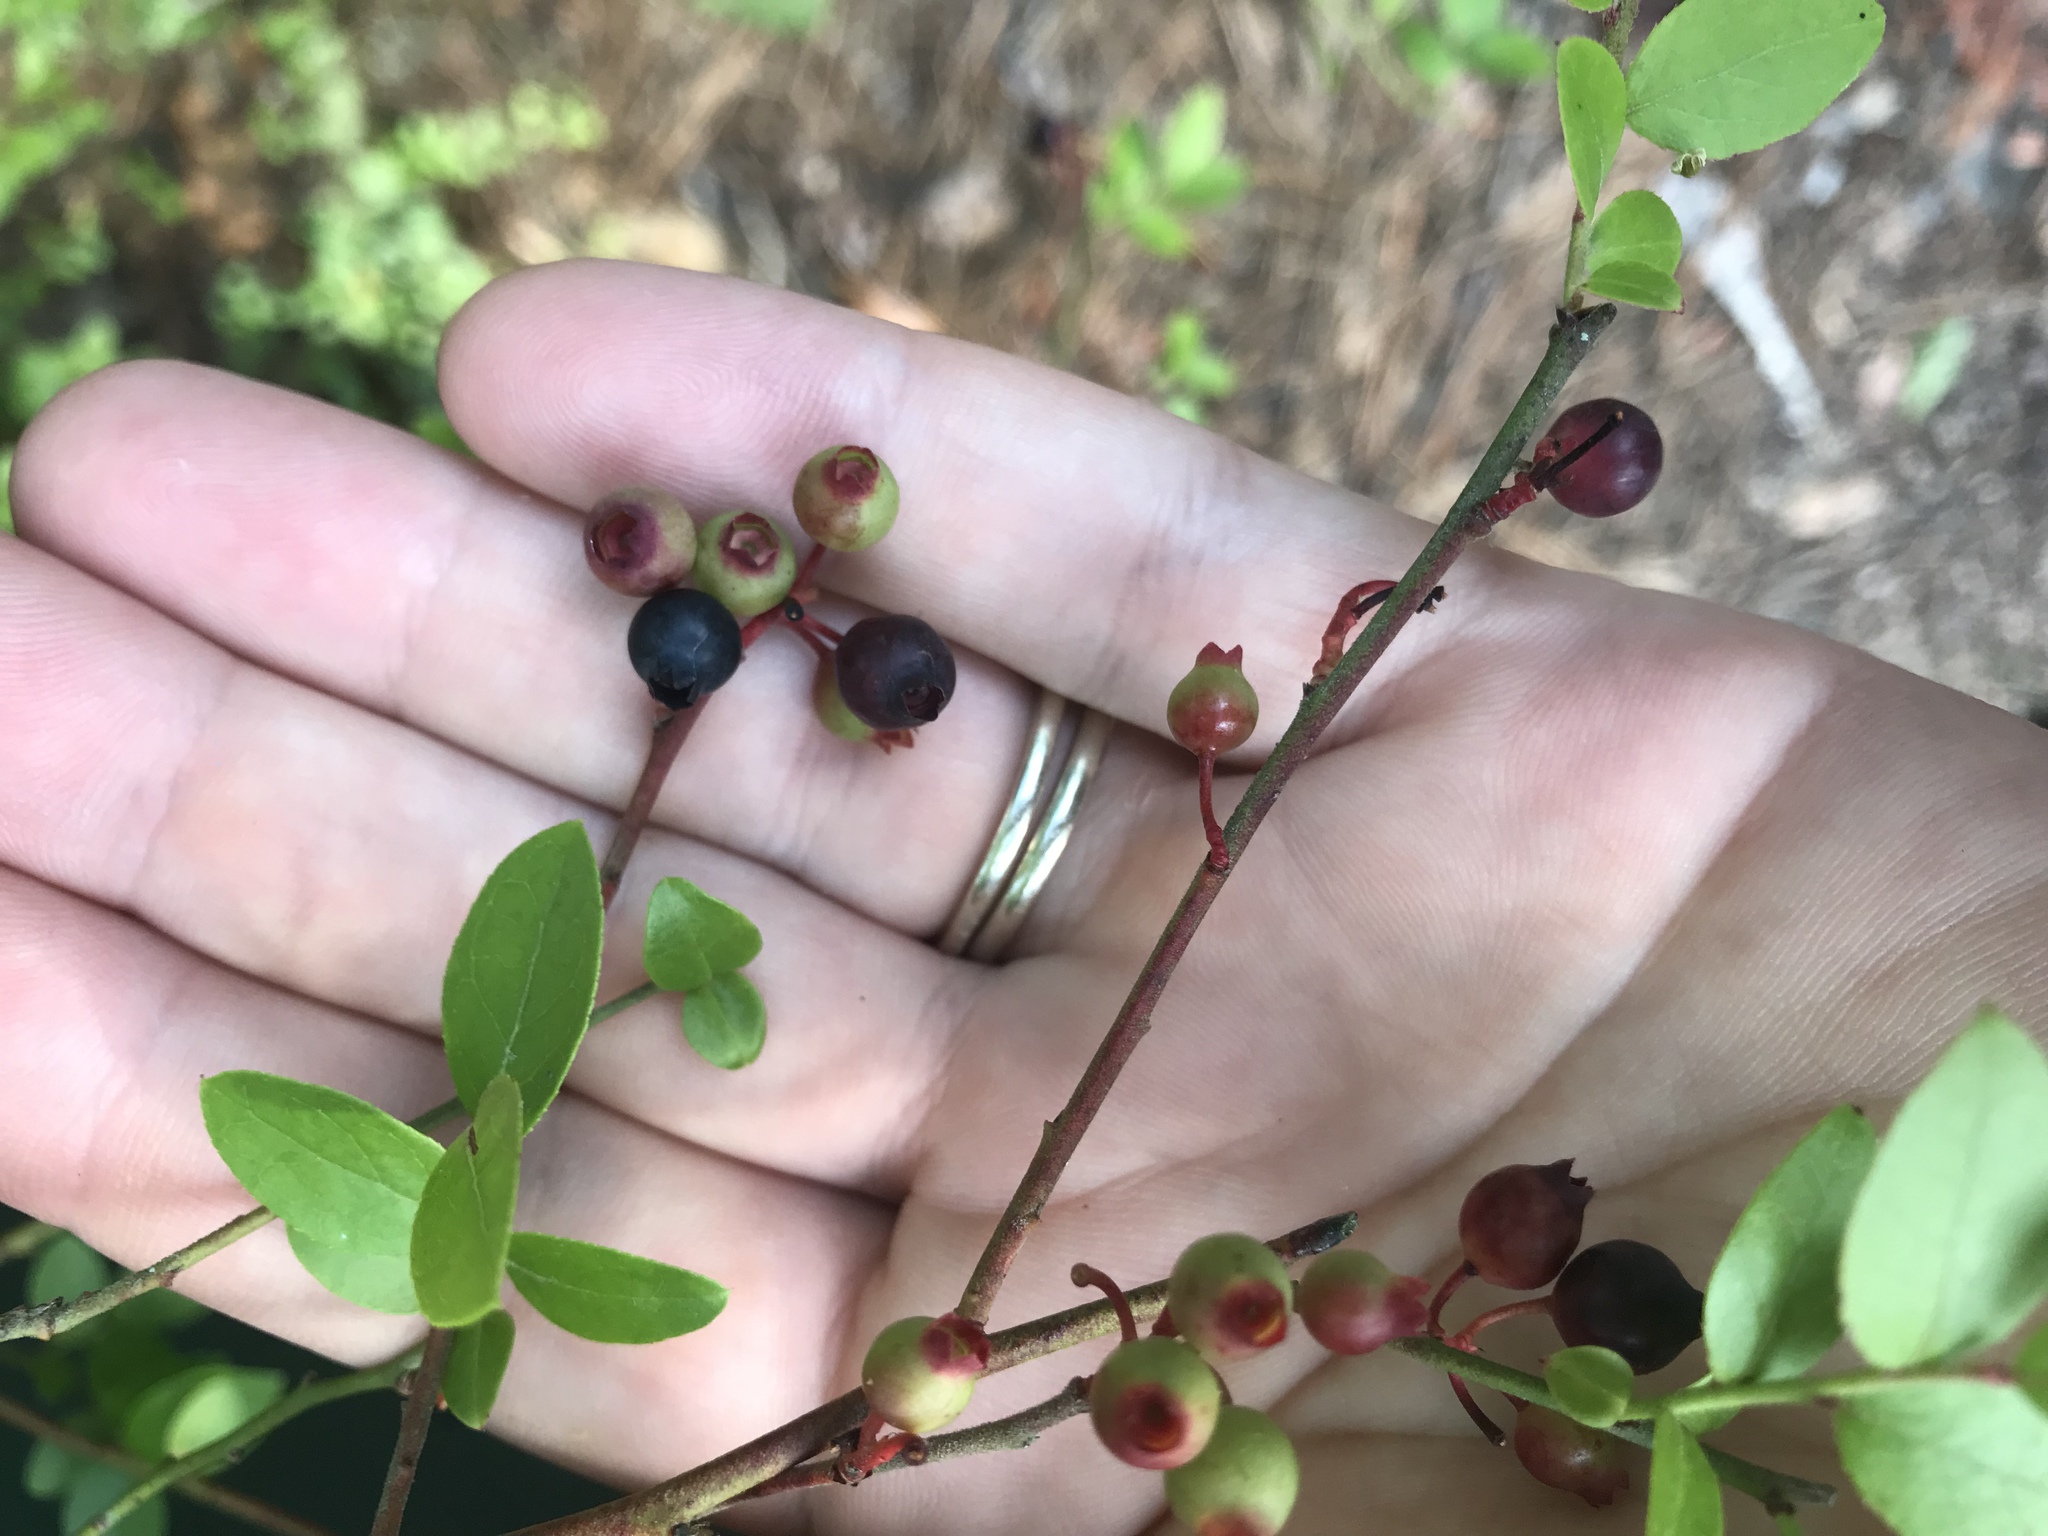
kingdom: Plantae
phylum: Tracheophyta
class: Magnoliopsida
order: Ericales
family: Ericaceae
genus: Vaccinium
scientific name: Vaccinium corymbosum
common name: Blueberry
